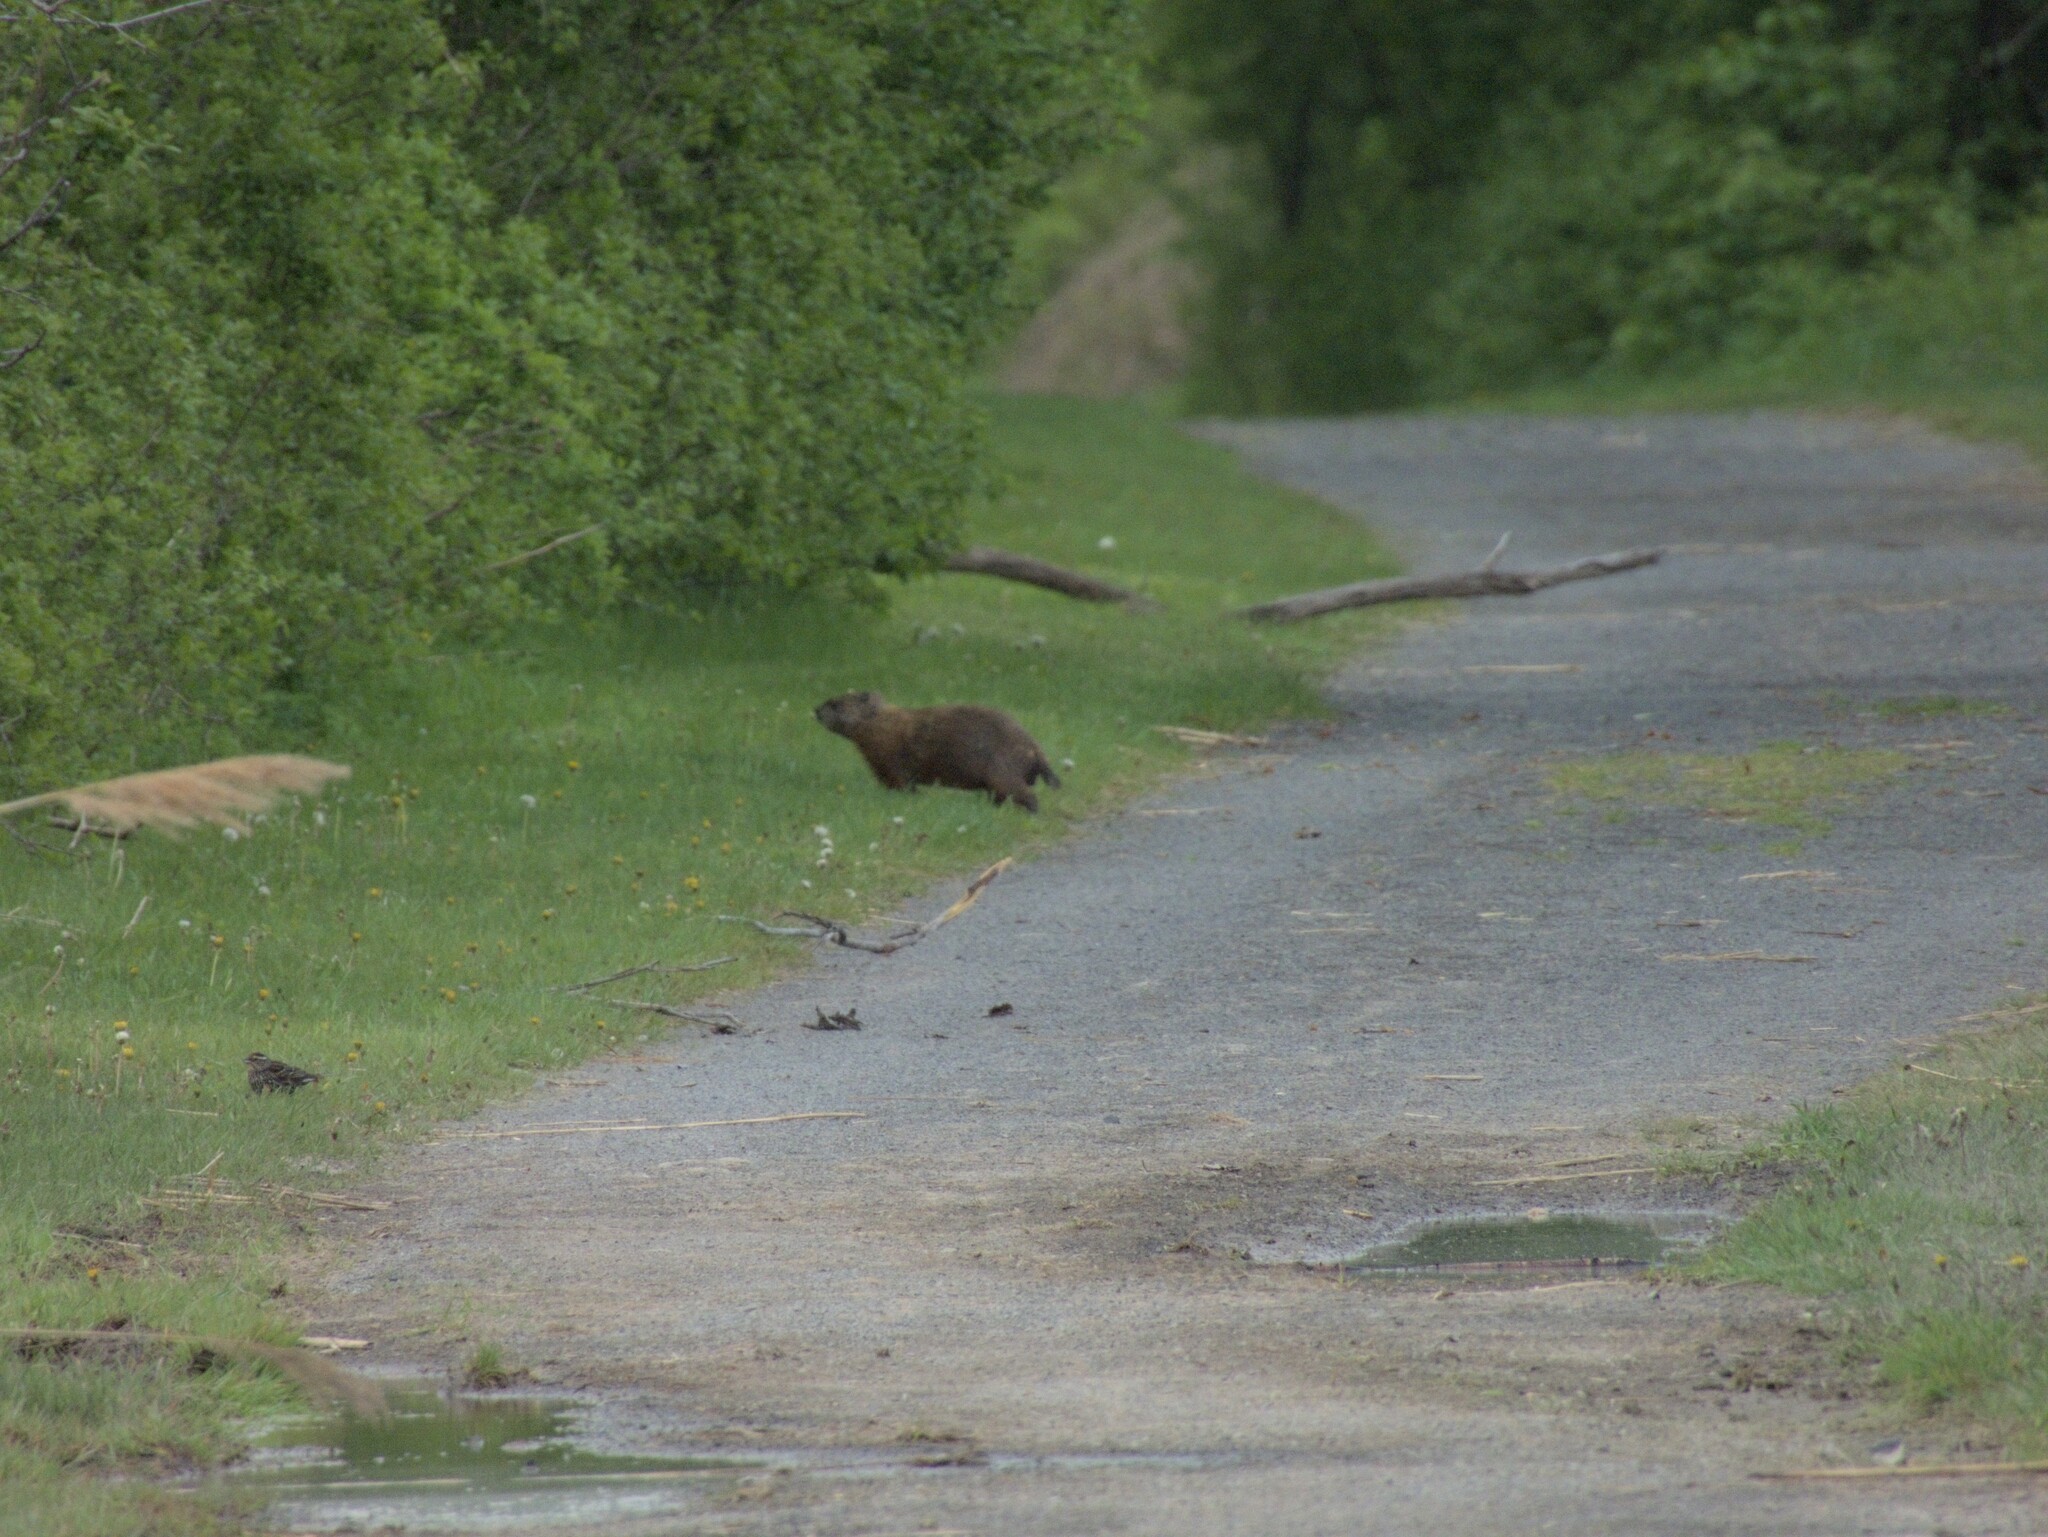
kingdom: Animalia
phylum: Chordata
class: Mammalia
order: Rodentia
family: Sciuridae
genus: Marmota
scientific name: Marmota monax
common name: Groundhog
